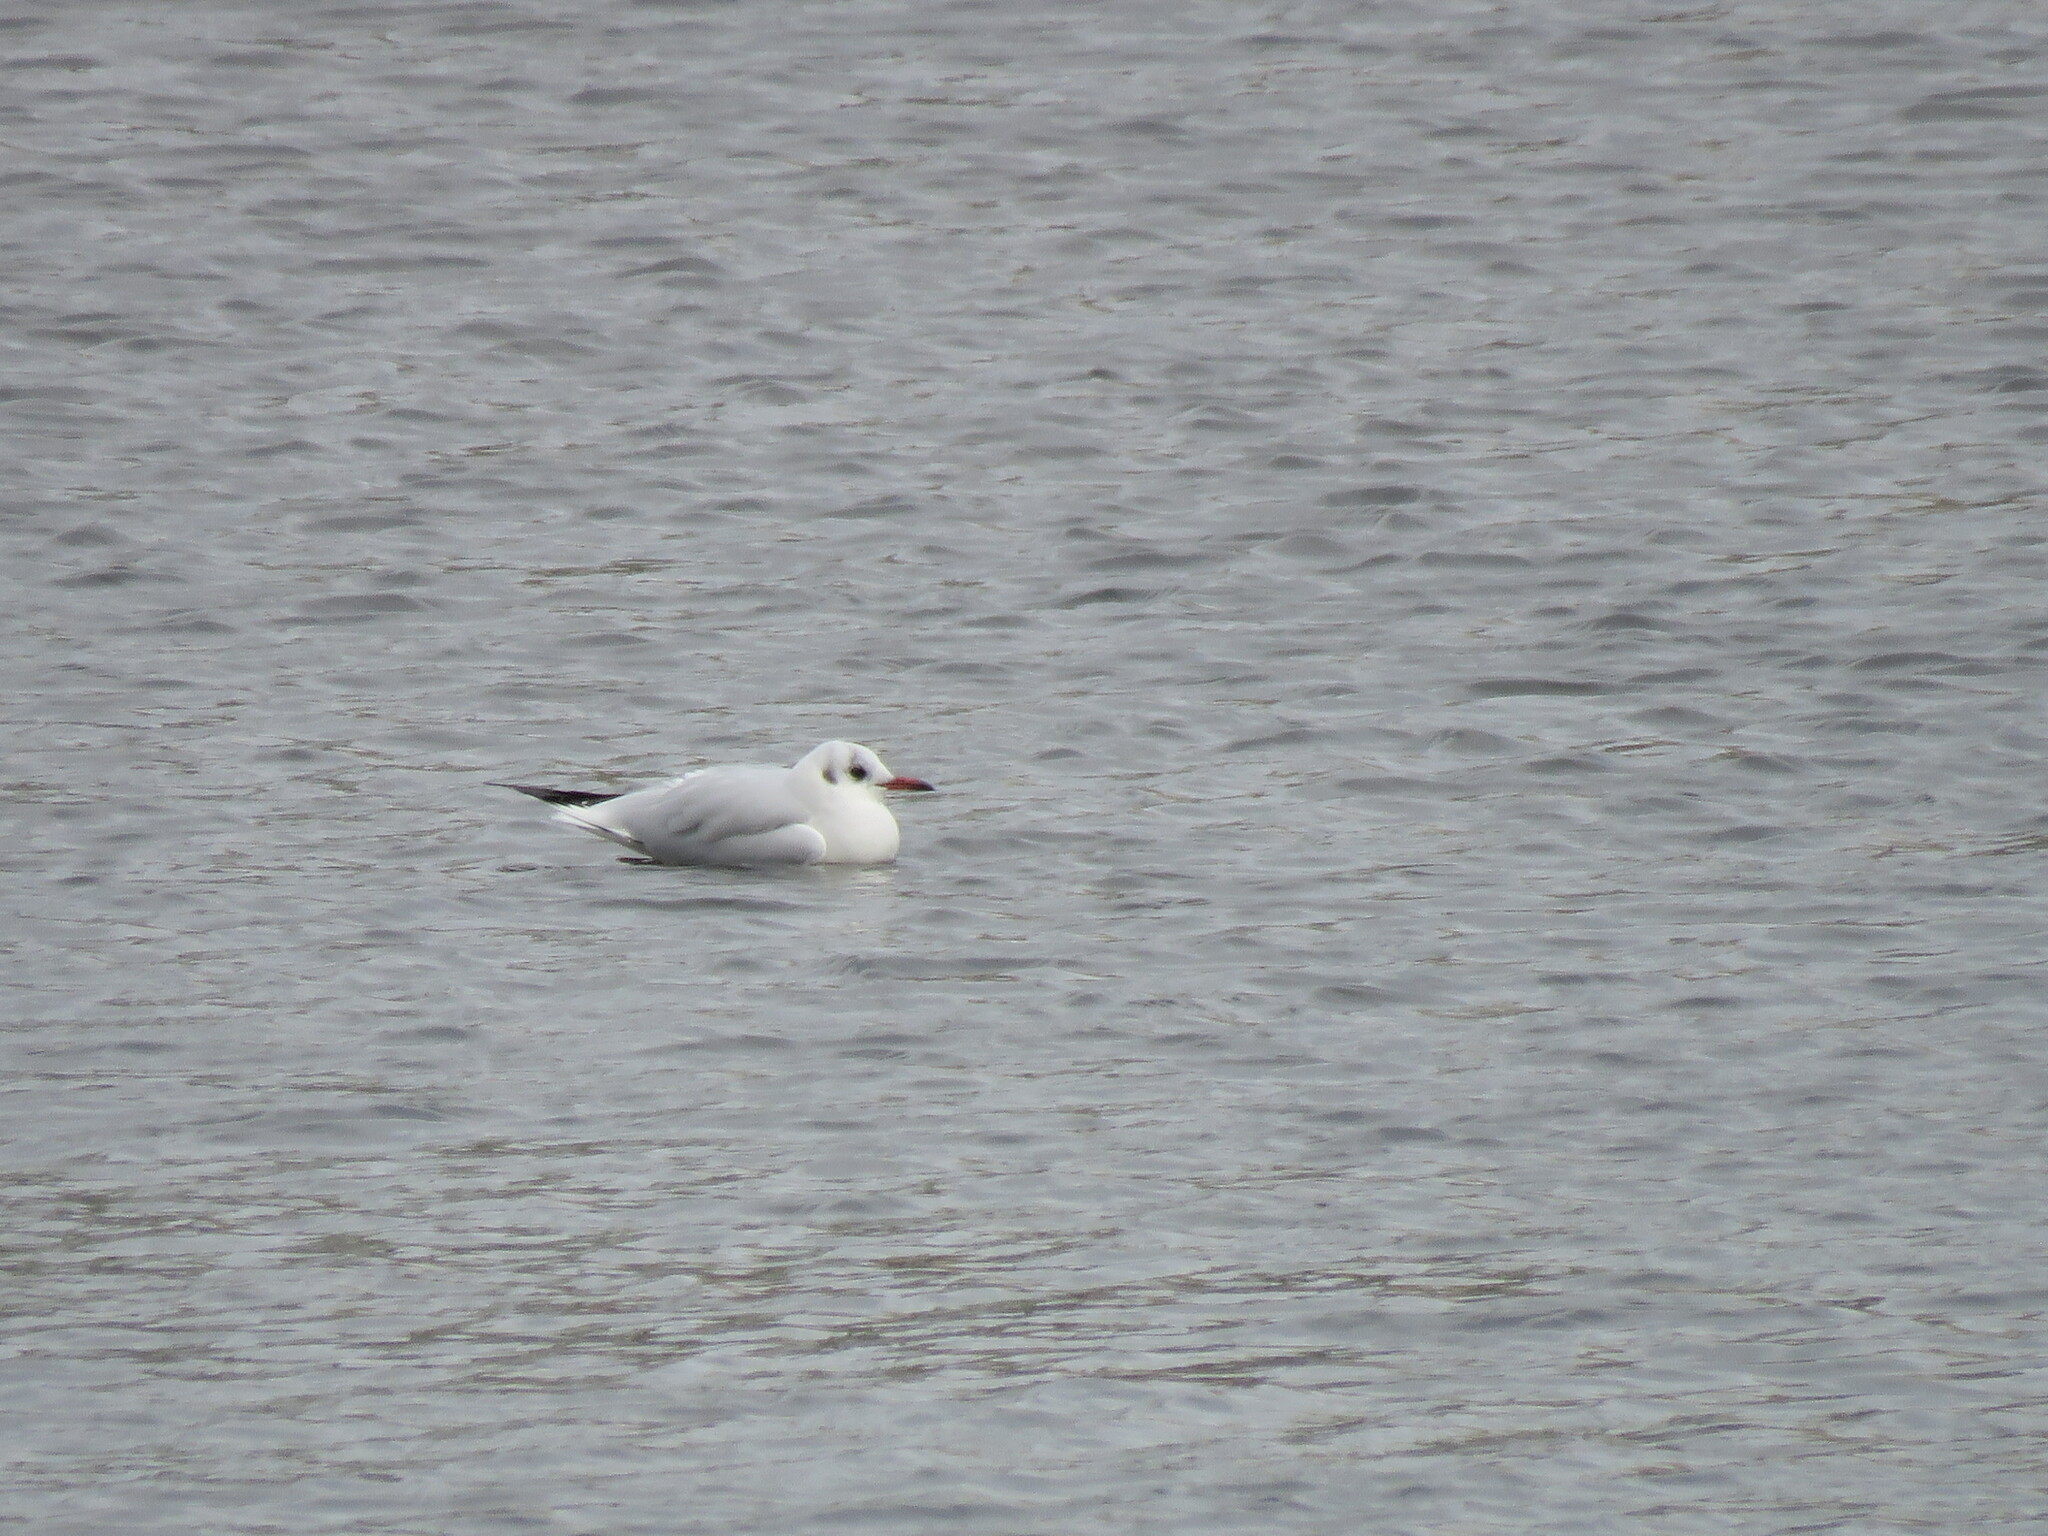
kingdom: Animalia
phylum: Chordata
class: Aves
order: Charadriiformes
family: Laridae
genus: Chroicocephalus
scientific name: Chroicocephalus ridibundus
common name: Black-headed gull
